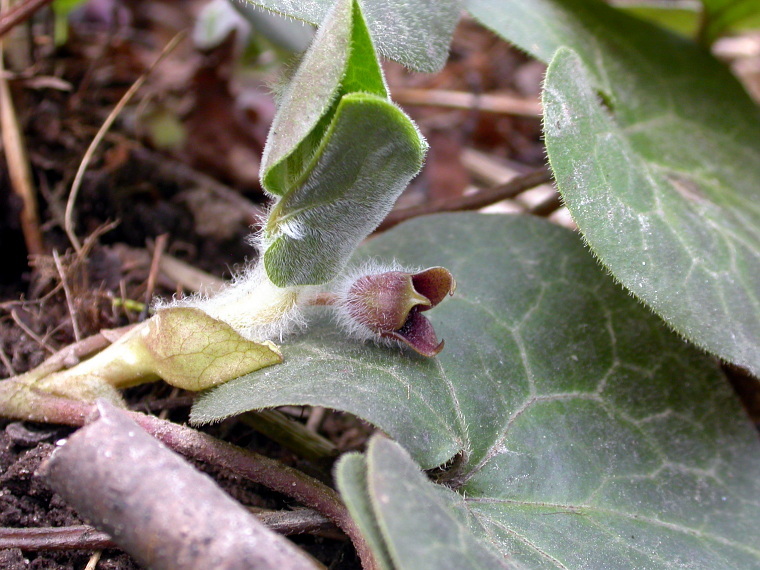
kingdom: Plantae
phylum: Tracheophyta
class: Magnoliopsida
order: Piperales
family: Aristolochiaceae
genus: Asarum
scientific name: Asarum europaeum
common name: Asarabacca
